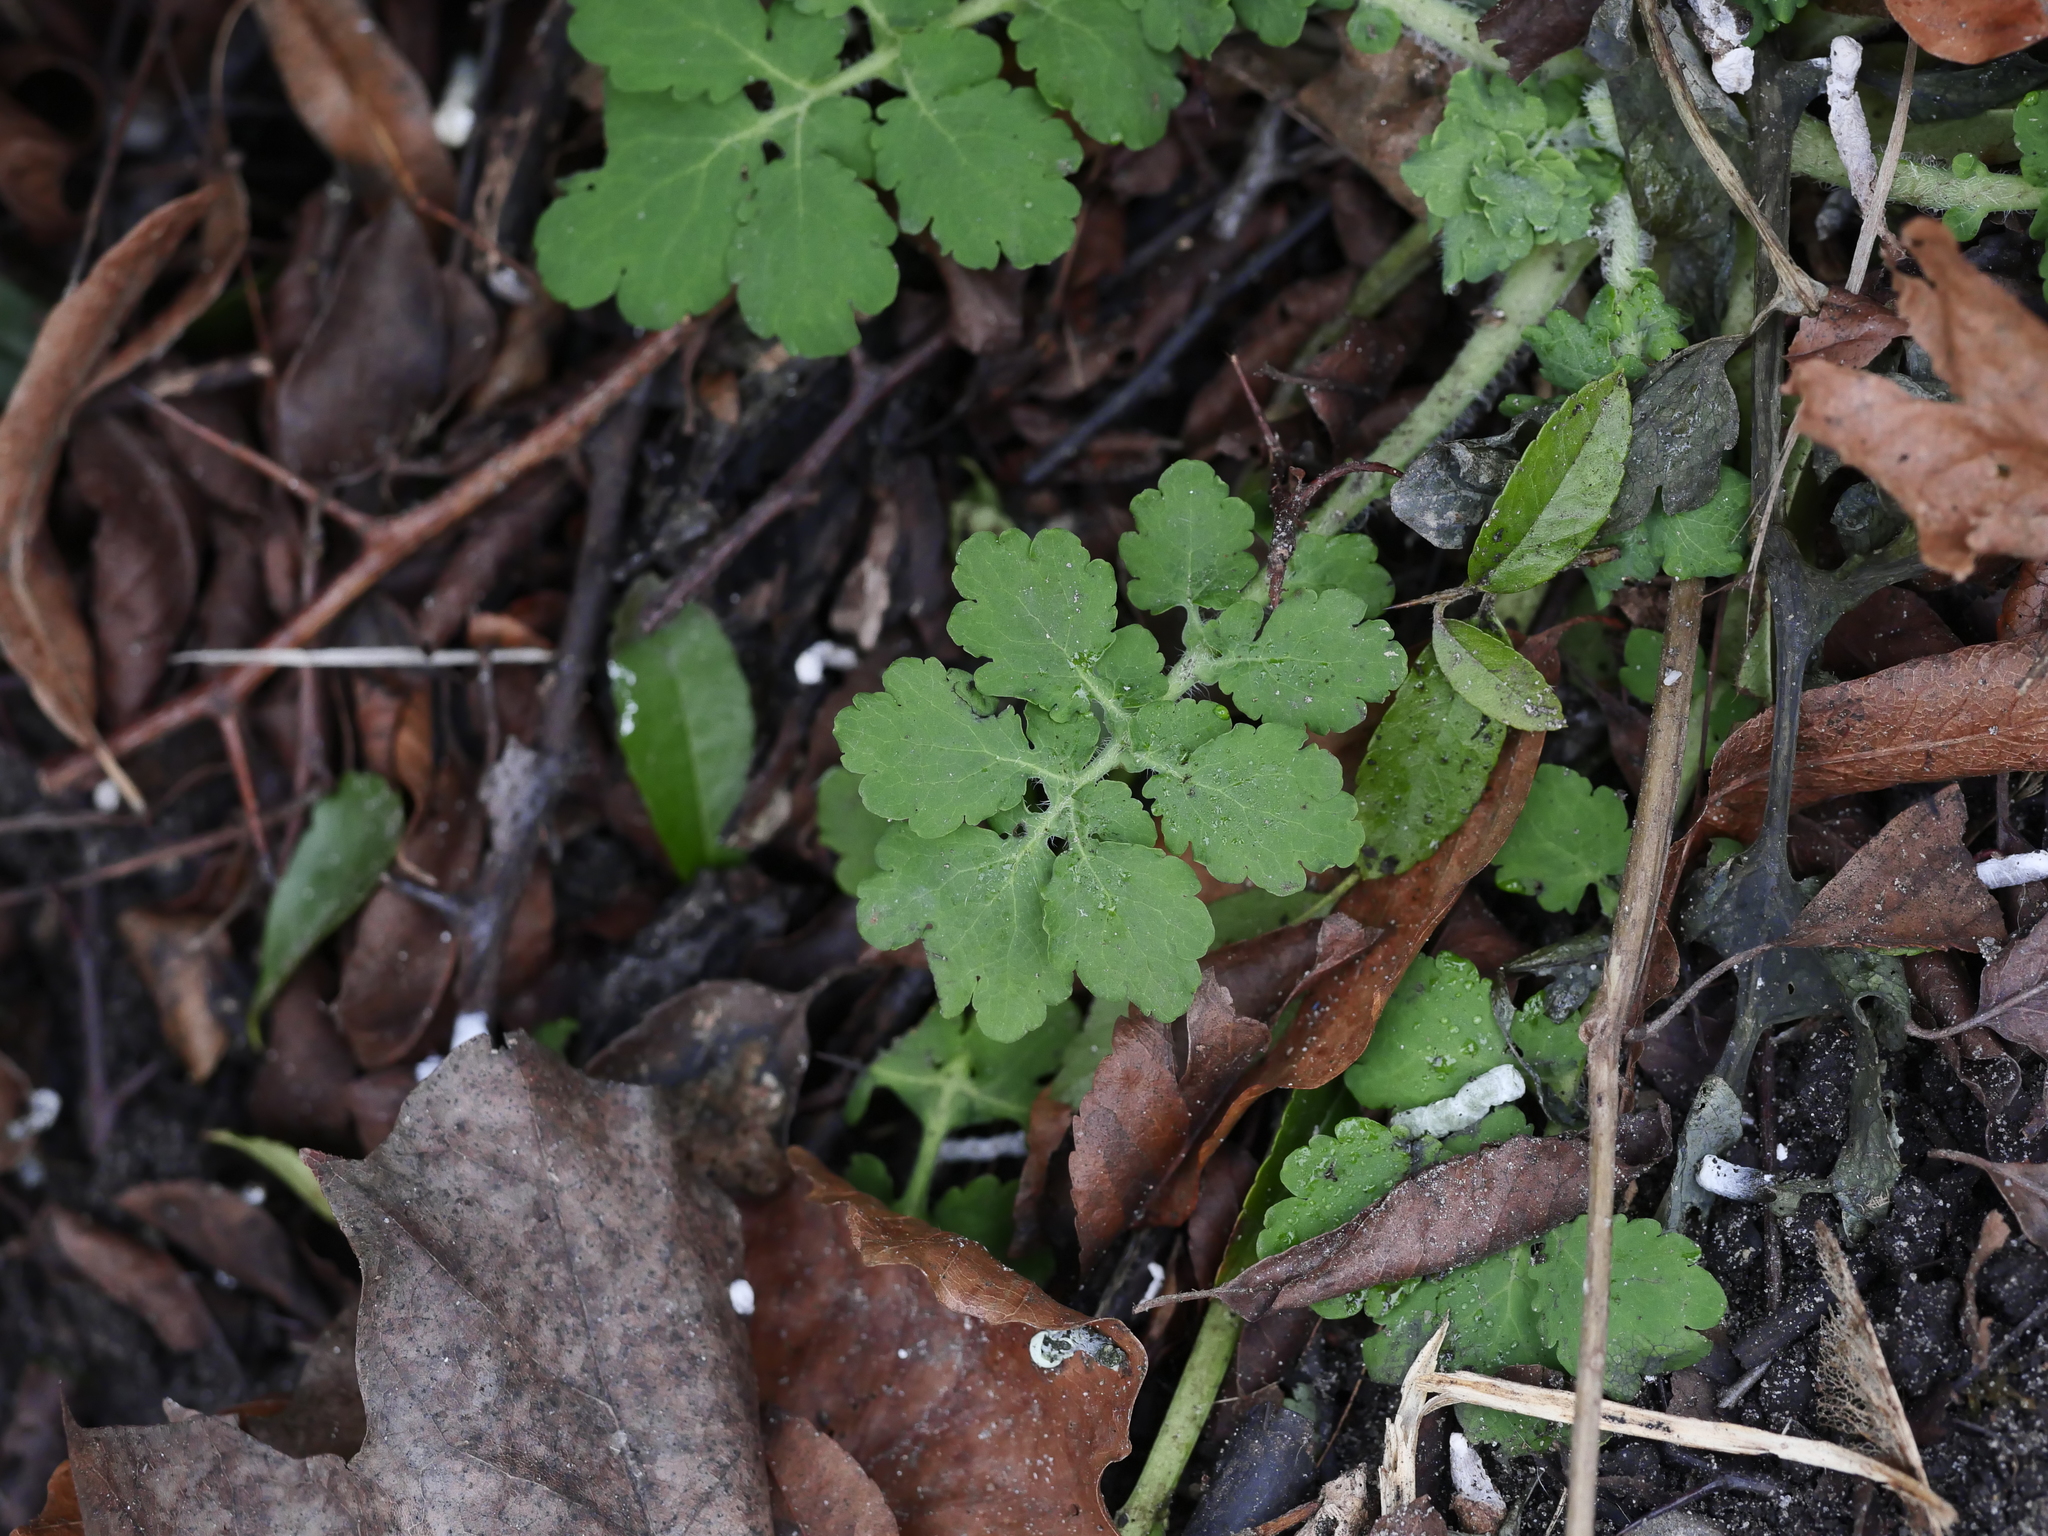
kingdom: Plantae
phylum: Tracheophyta
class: Magnoliopsida
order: Ranunculales
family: Papaveraceae
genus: Chelidonium
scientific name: Chelidonium majus
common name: Greater celandine
